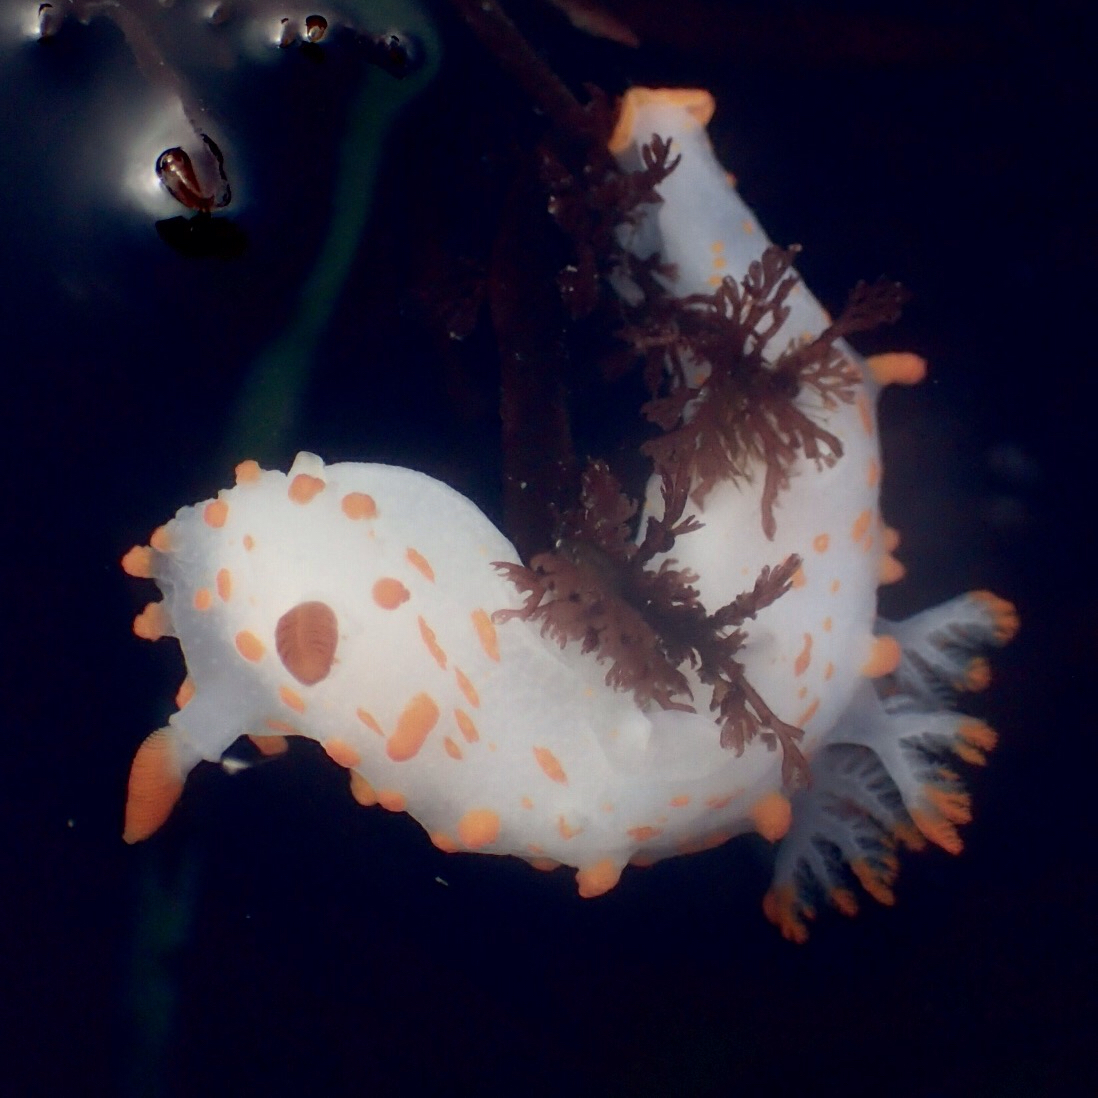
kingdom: Animalia
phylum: Mollusca
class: Gastropoda
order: Nudibranchia
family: Polyceridae
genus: Triopha
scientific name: Triopha catalinae
